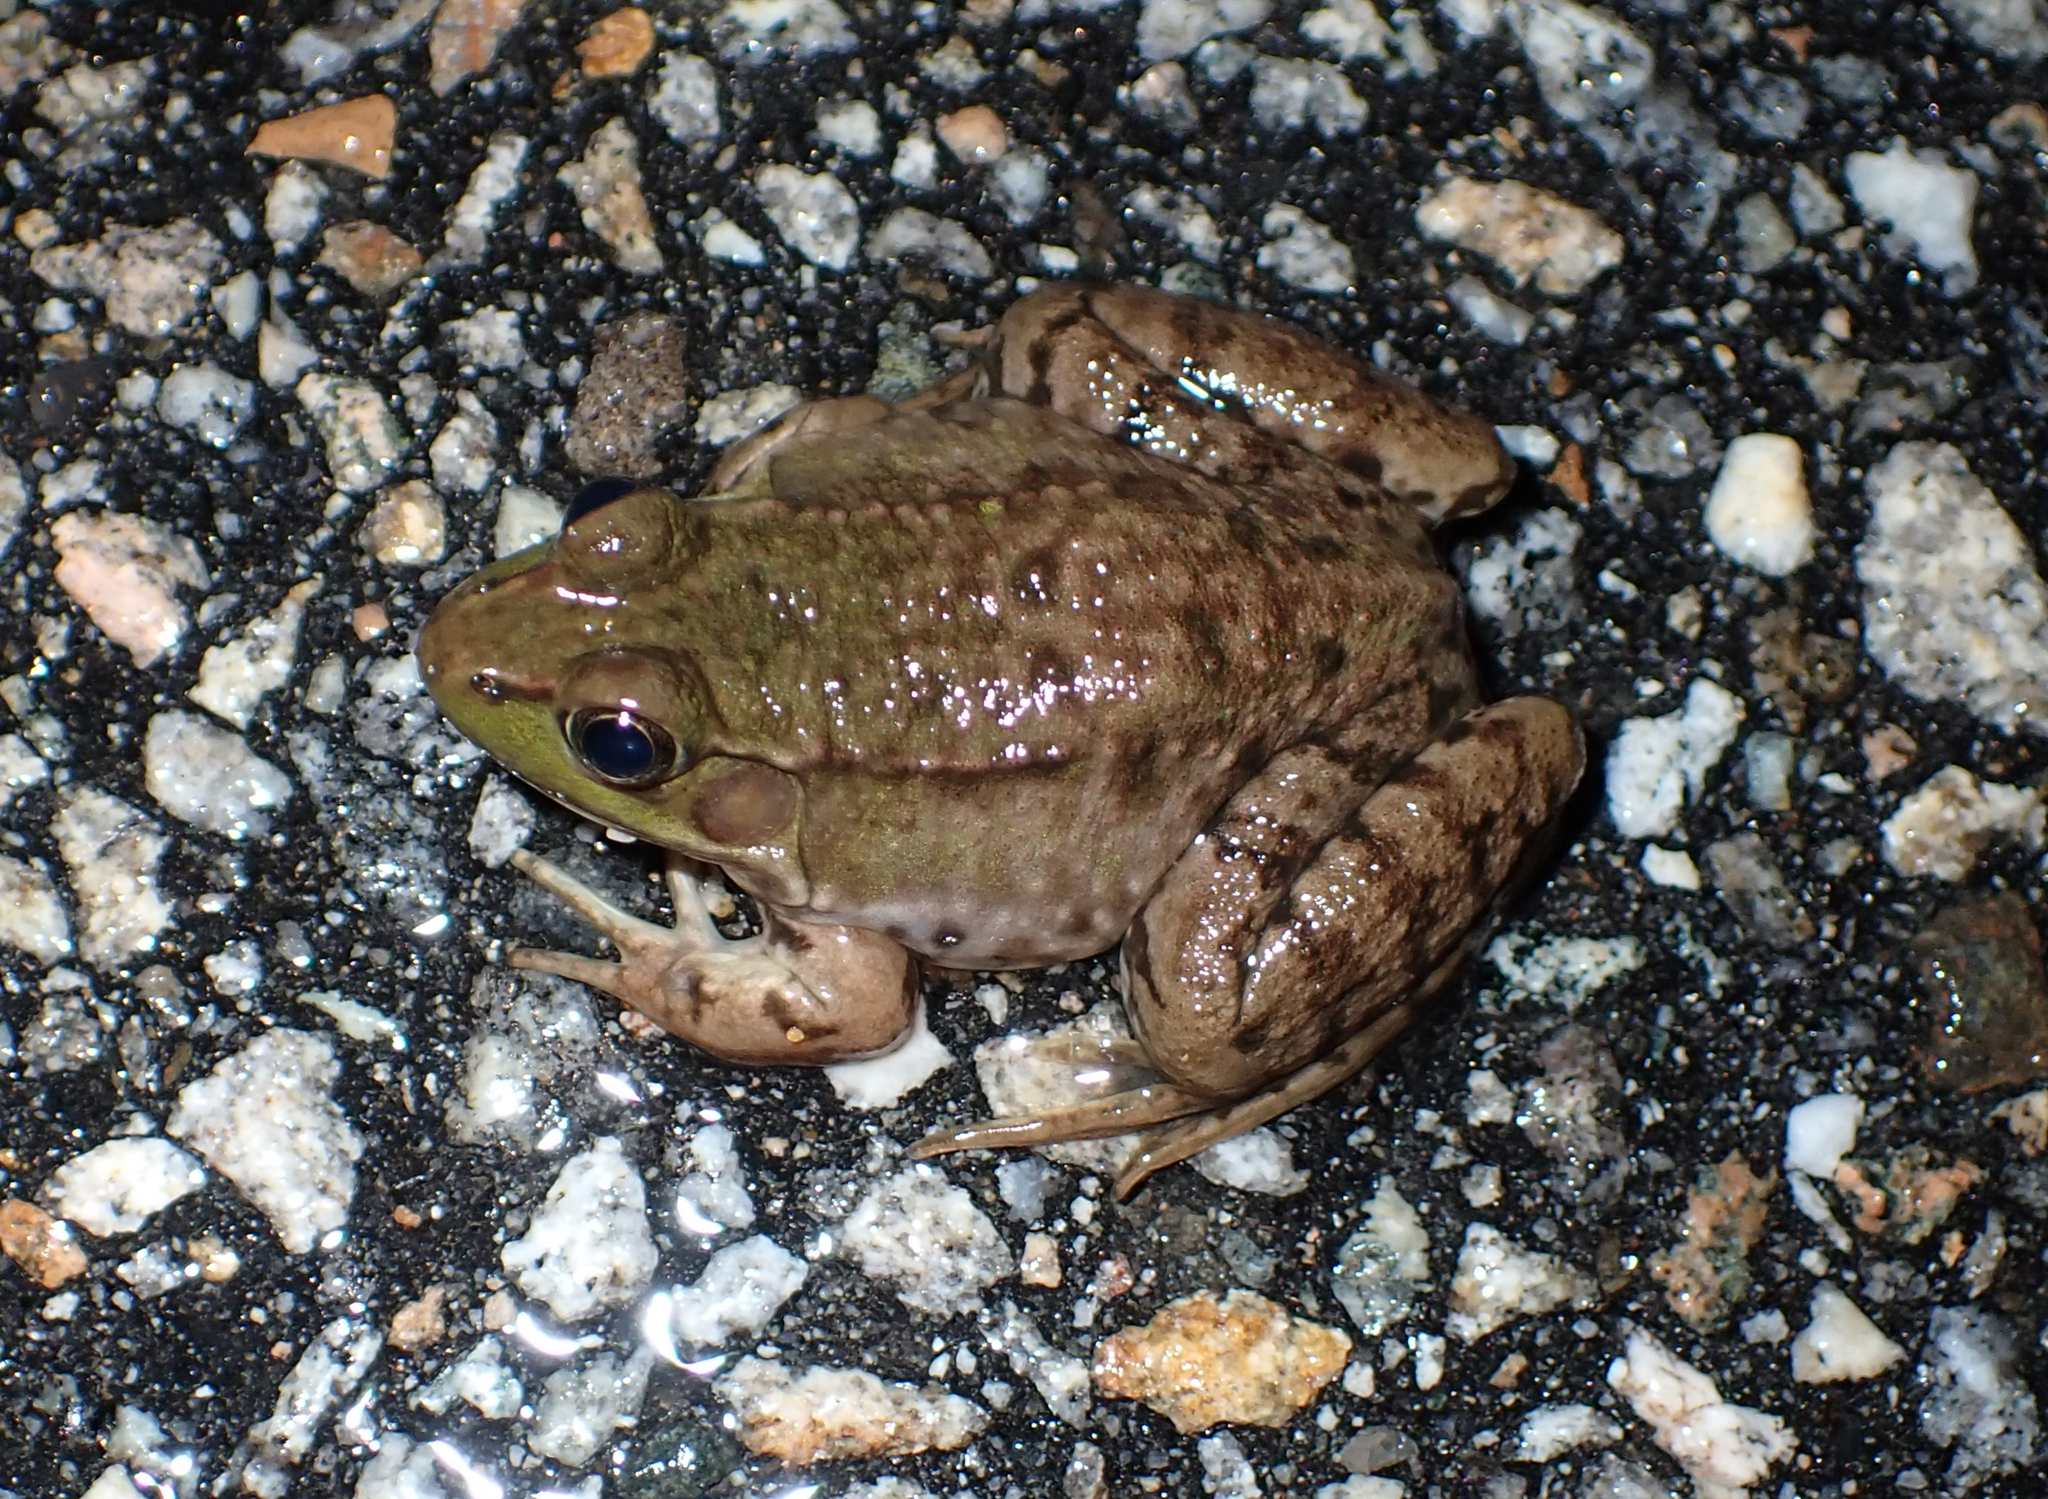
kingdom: Animalia
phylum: Chordata
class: Amphibia
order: Anura
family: Ranidae
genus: Lithobates
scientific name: Lithobates clamitans
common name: Green frog
